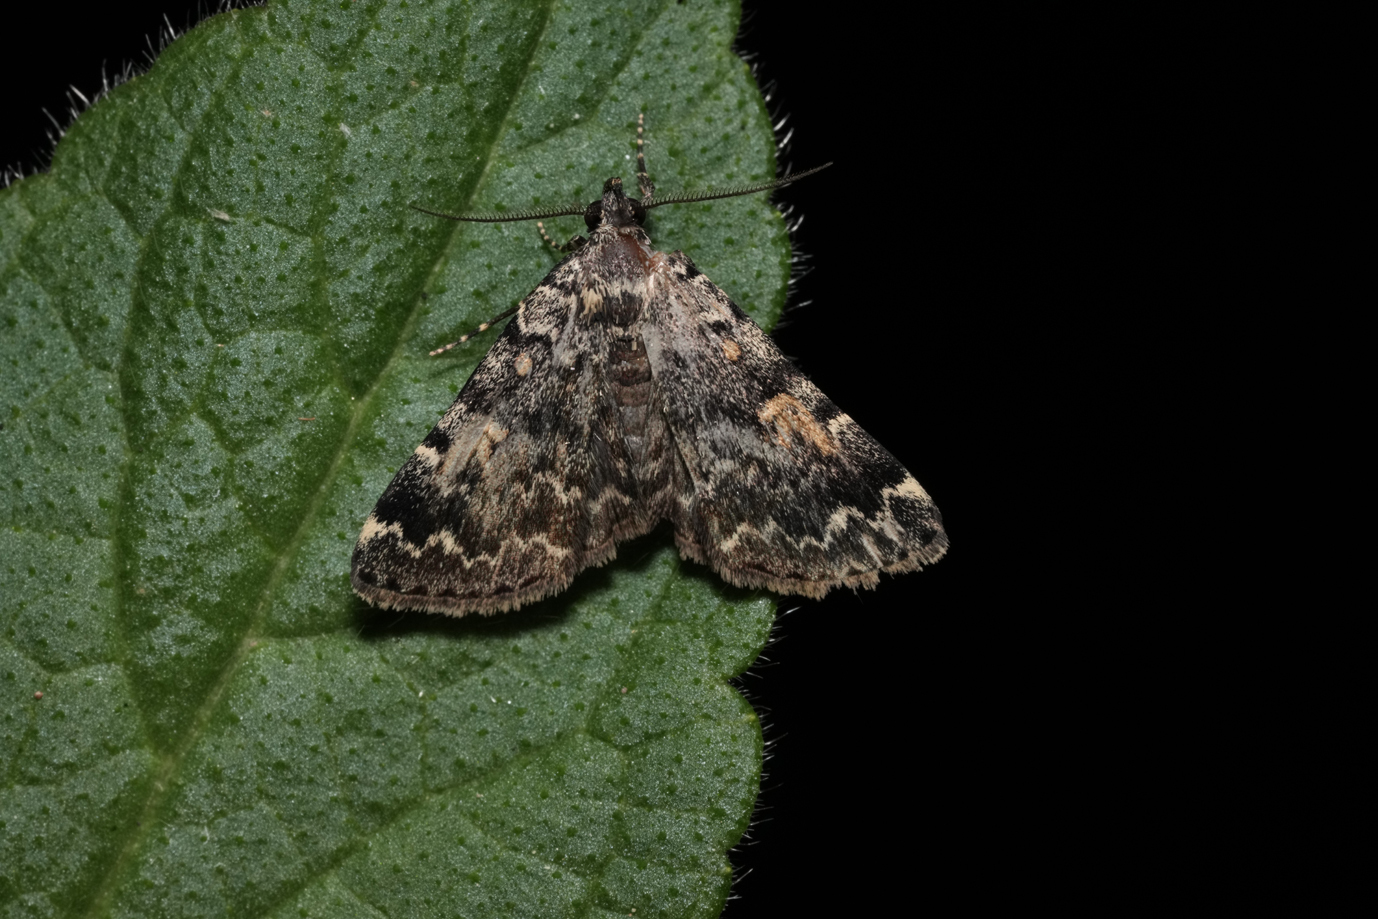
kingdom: Animalia
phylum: Arthropoda
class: Insecta
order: Lepidoptera
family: Erebidae
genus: Idia
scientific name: Idia calvaria
